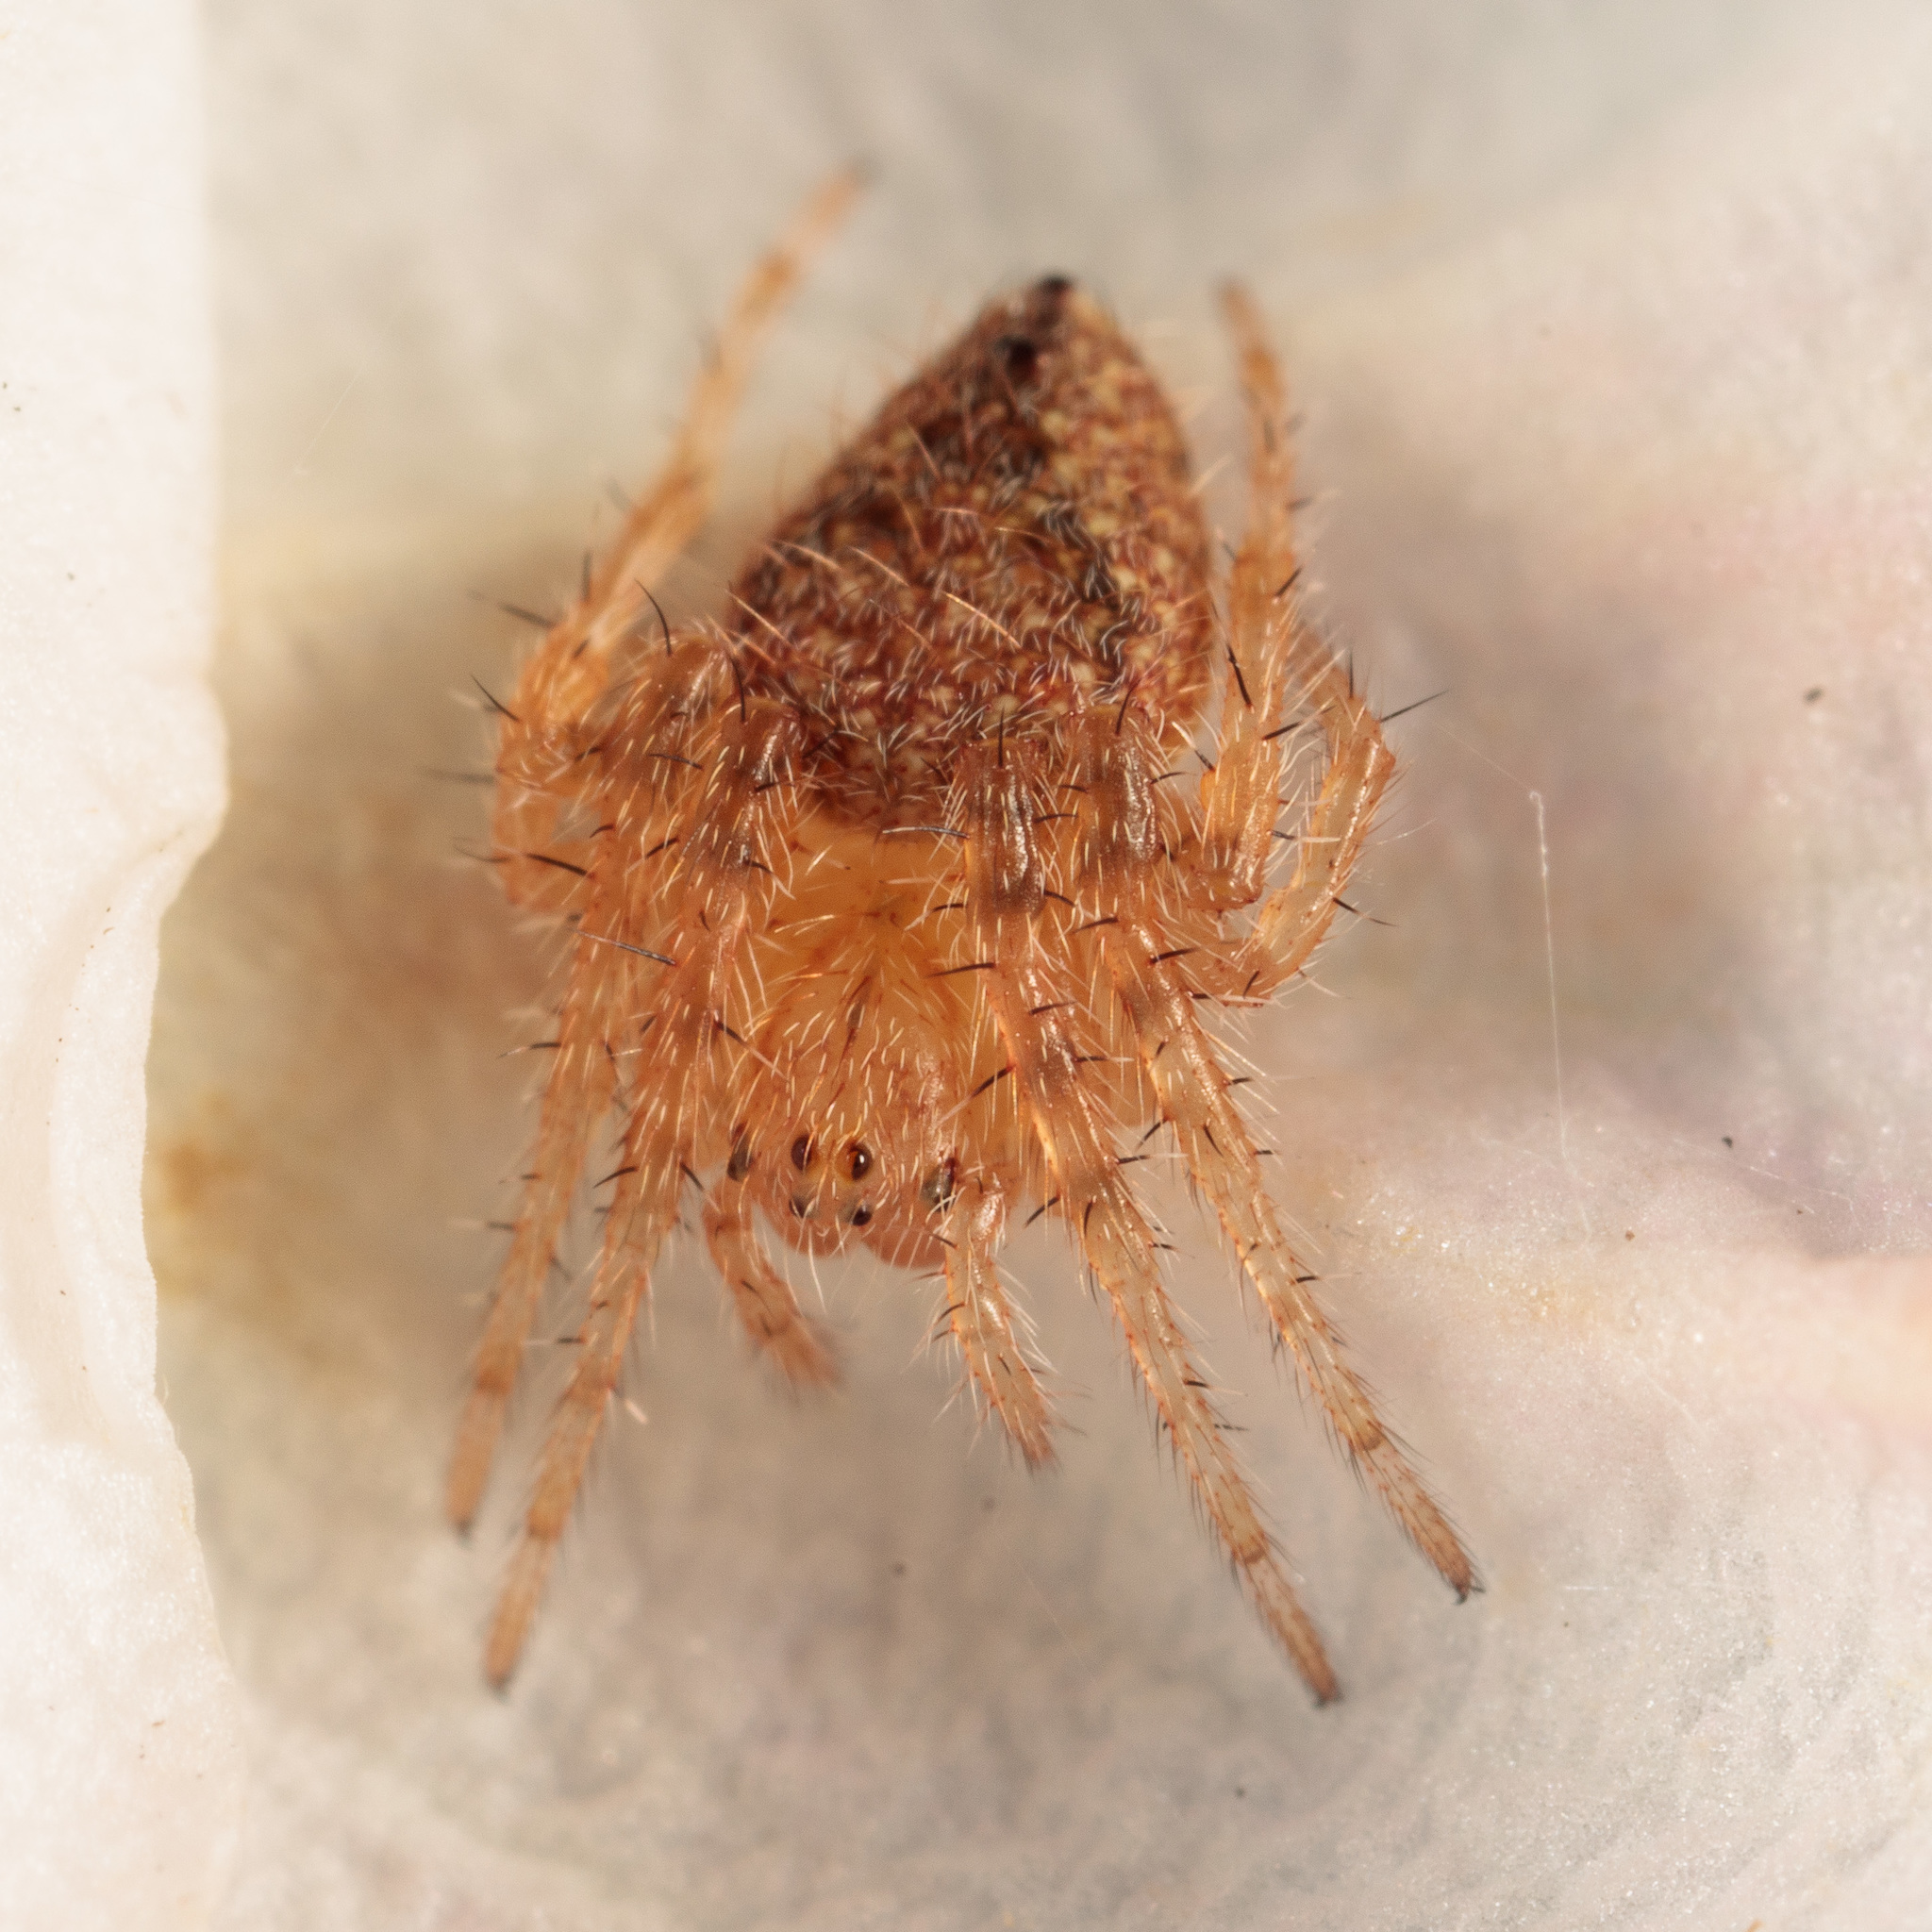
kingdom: Animalia
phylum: Arthropoda
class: Arachnida
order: Araneae
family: Araneidae
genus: Eriophora
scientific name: Eriophora edax
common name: Orb weavers
